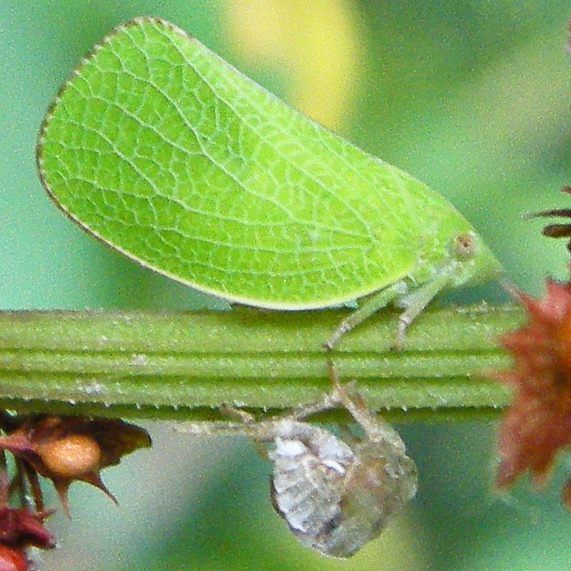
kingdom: Animalia
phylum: Arthropoda
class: Insecta
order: Hemiptera
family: Acanaloniidae
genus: Acanalonia
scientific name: Acanalonia conica
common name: Green cone-headed planthopper
